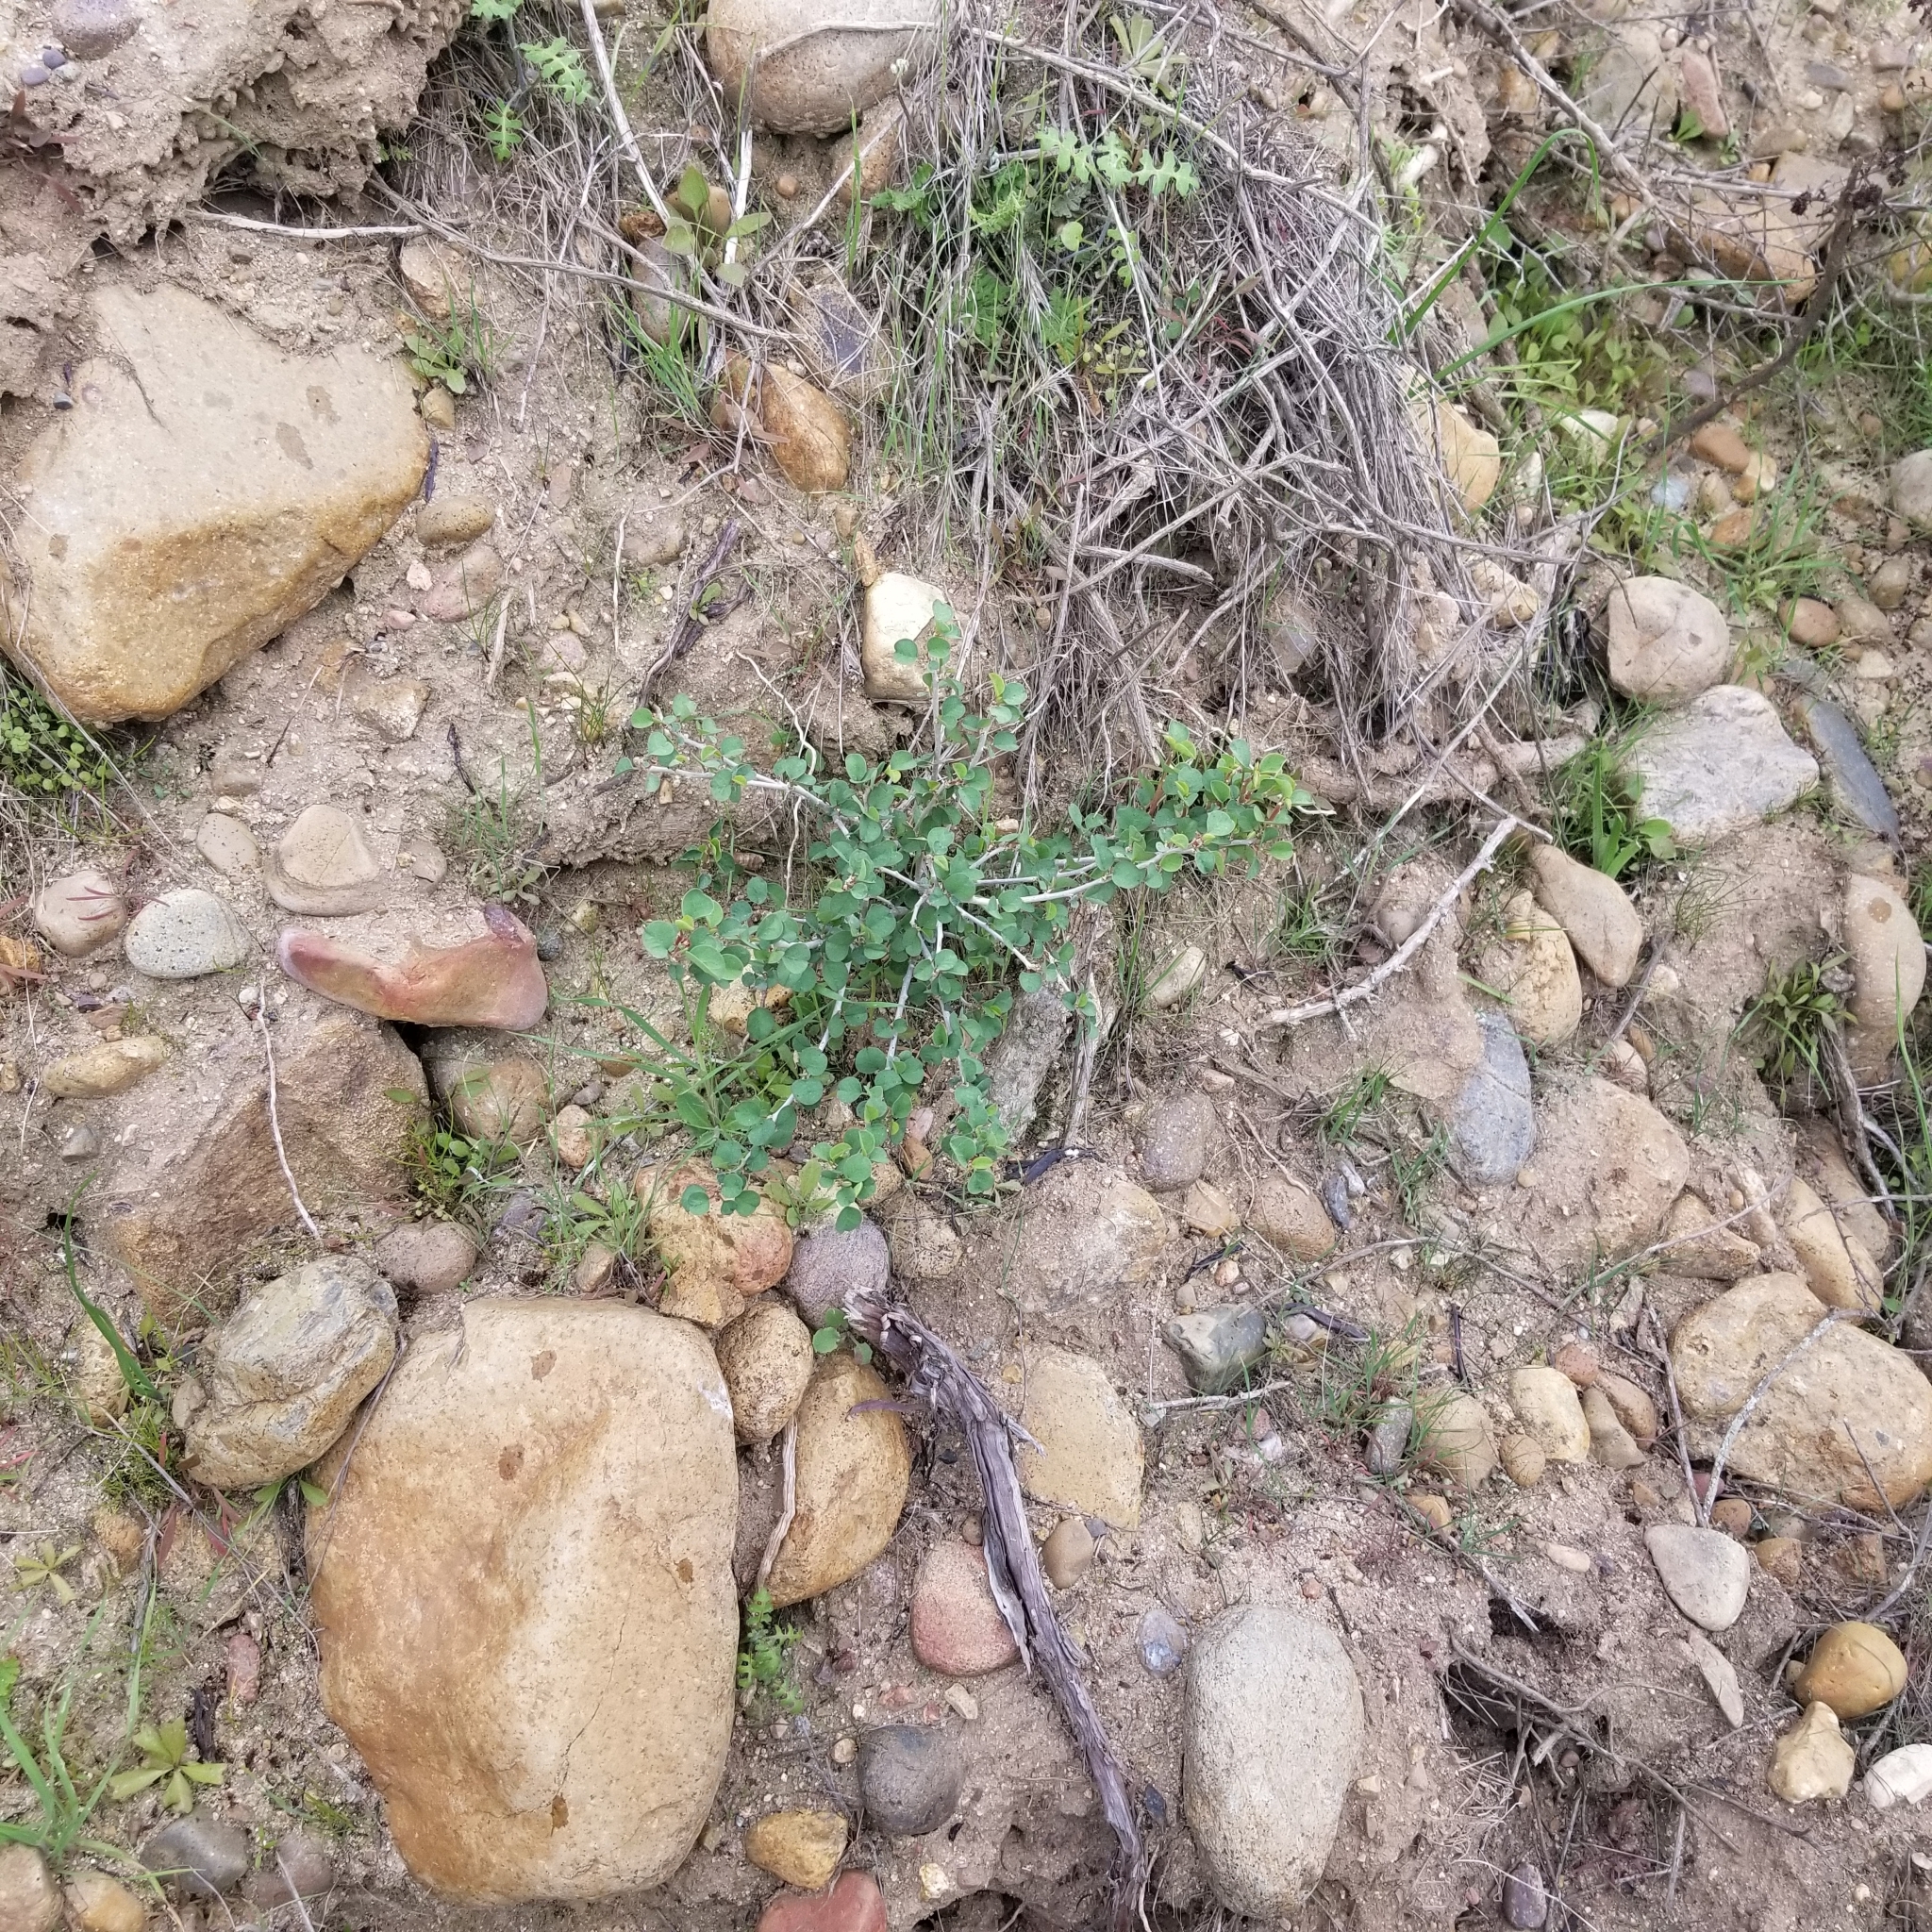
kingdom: Plantae
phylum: Tracheophyta
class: Magnoliopsida
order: Malpighiales
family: Euphorbiaceae
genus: Euphorbia
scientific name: Euphorbia misera
